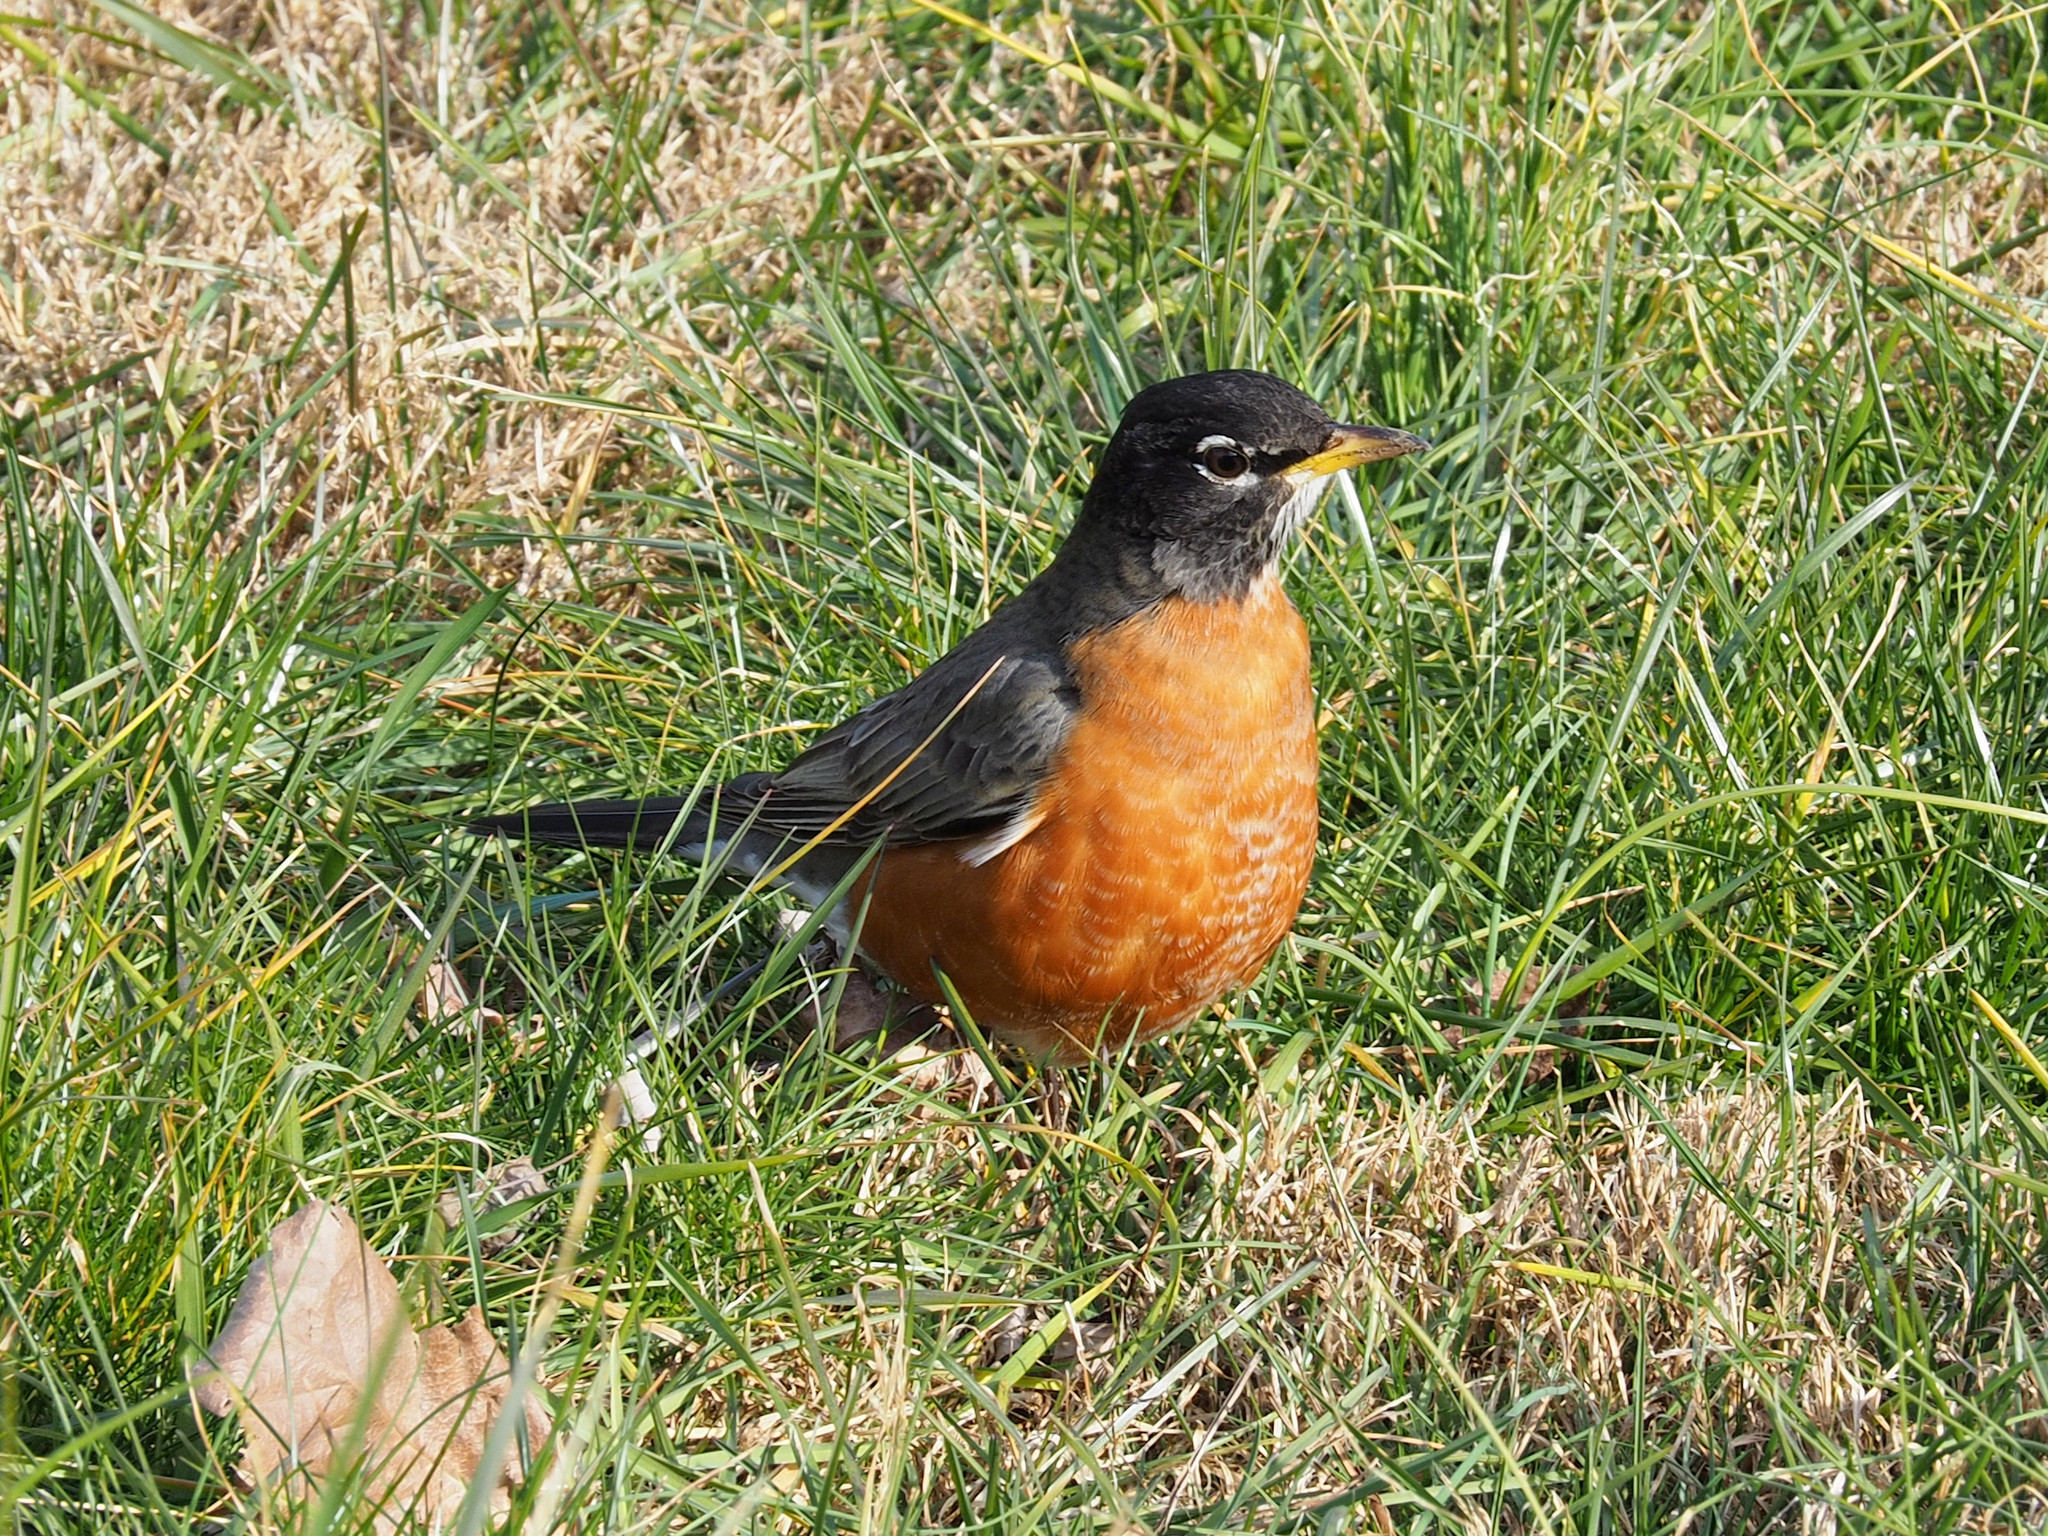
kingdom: Animalia
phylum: Chordata
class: Aves
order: Passeriformes
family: Turdidae
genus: Turdus
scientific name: Turdus migratorius
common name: American robin
